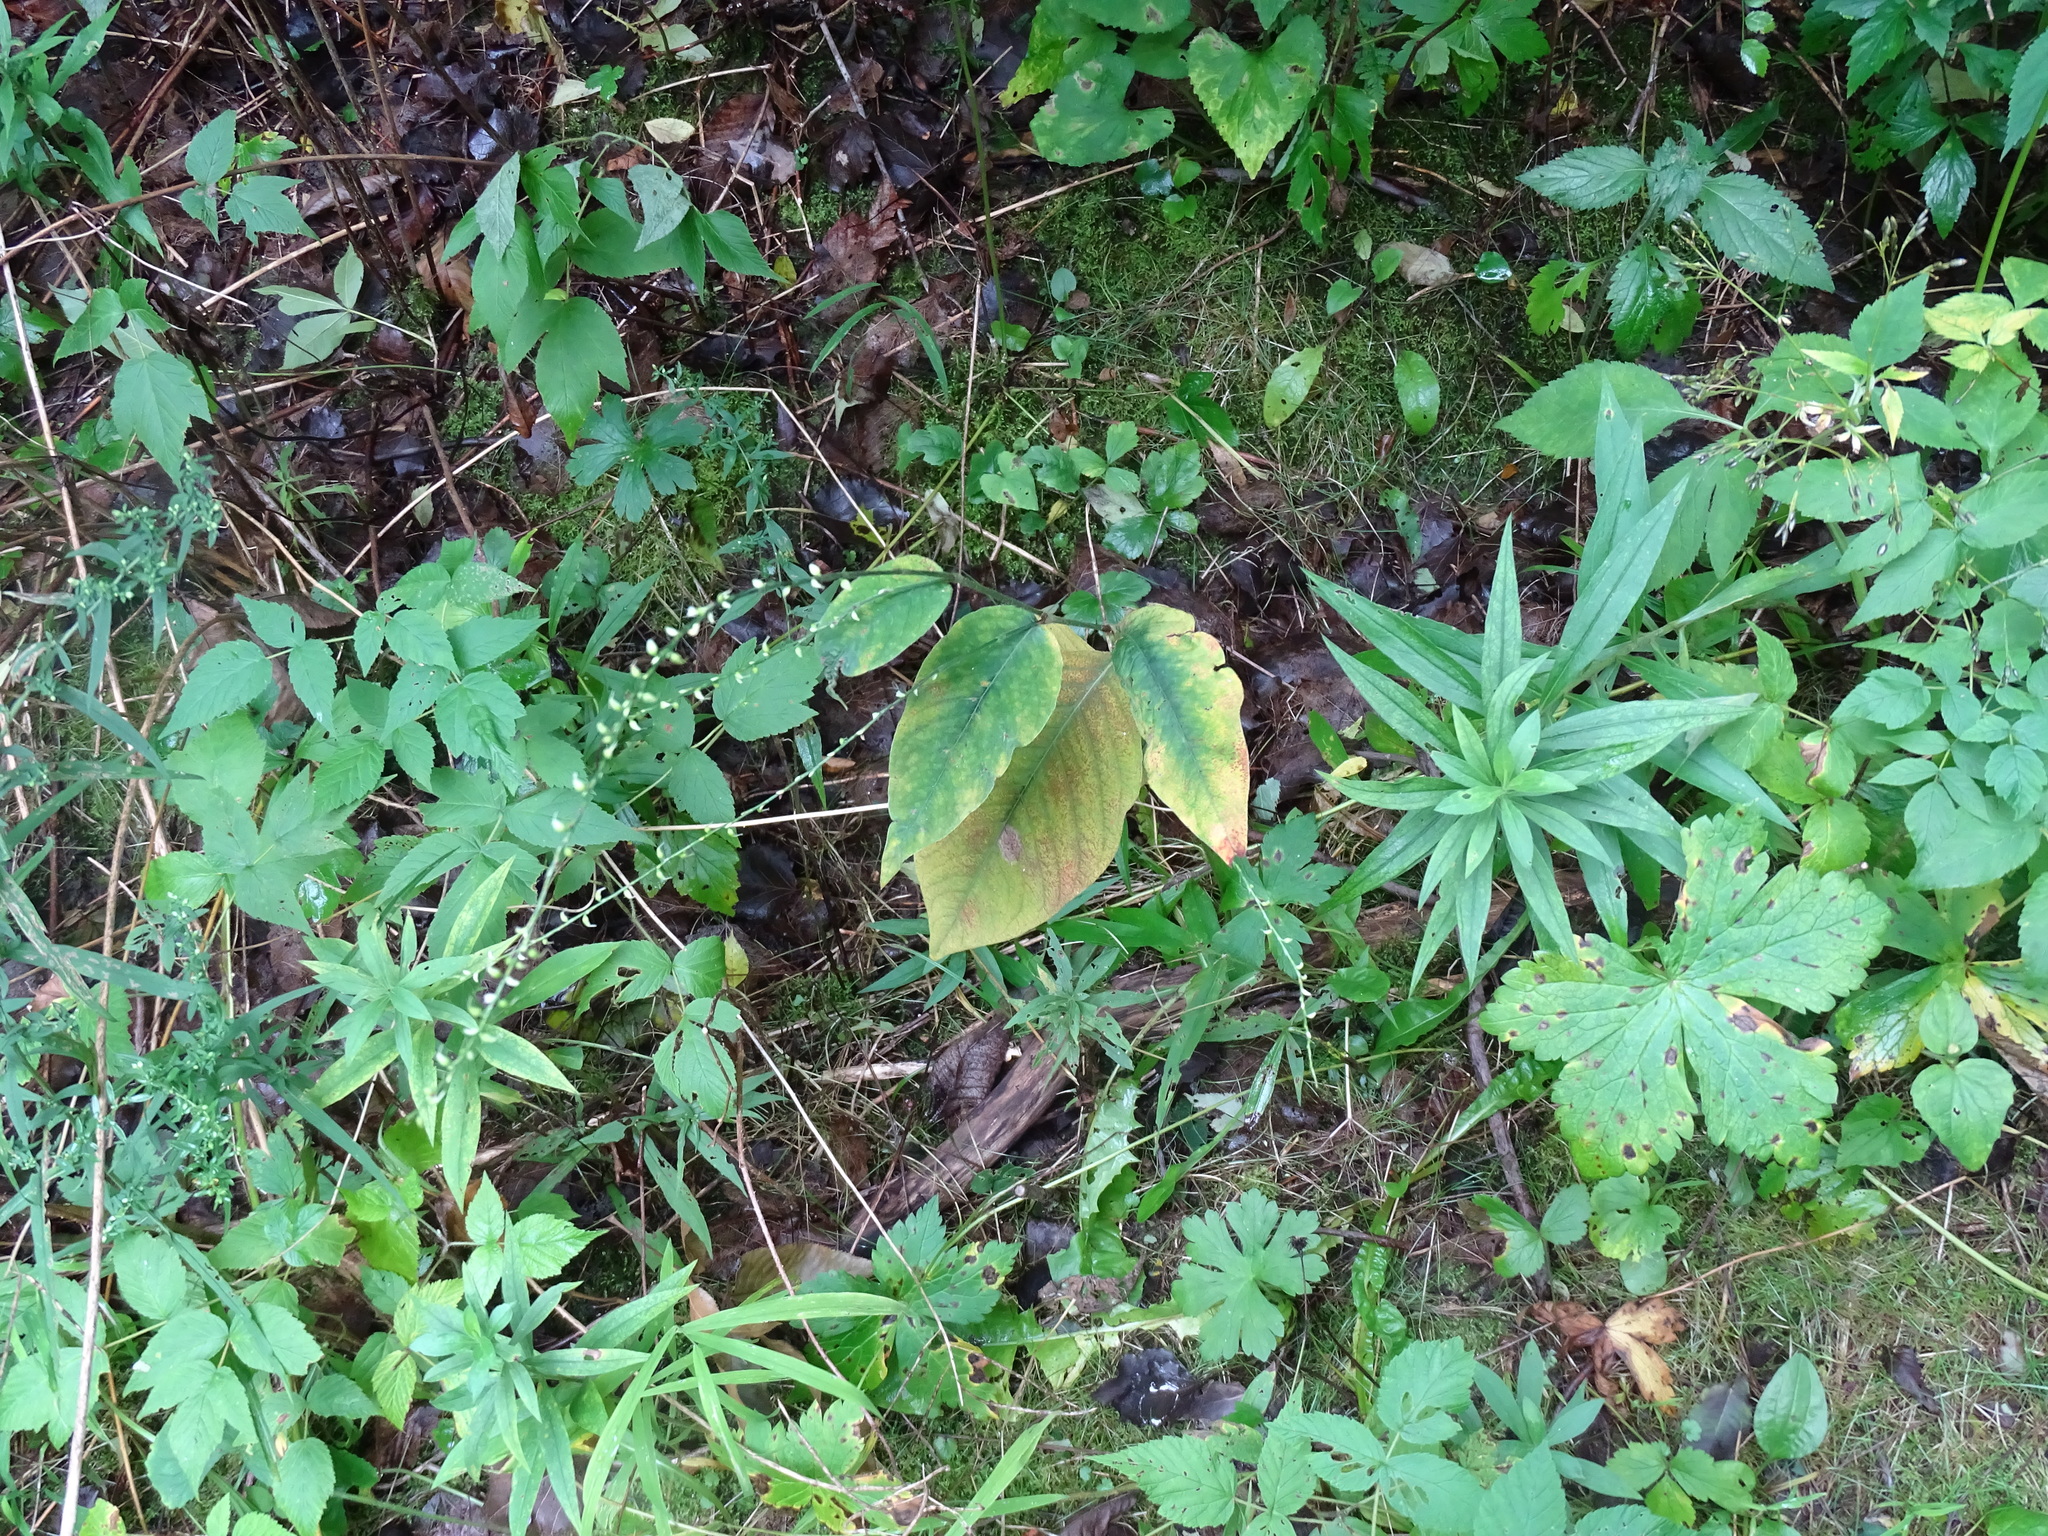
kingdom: Plantae
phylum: Tracheophyta
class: Magnoliopsida
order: Caryophyllales
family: Polygonaceae
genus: Persicaria
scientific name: Persicaria virginiana
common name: Jumpseed
